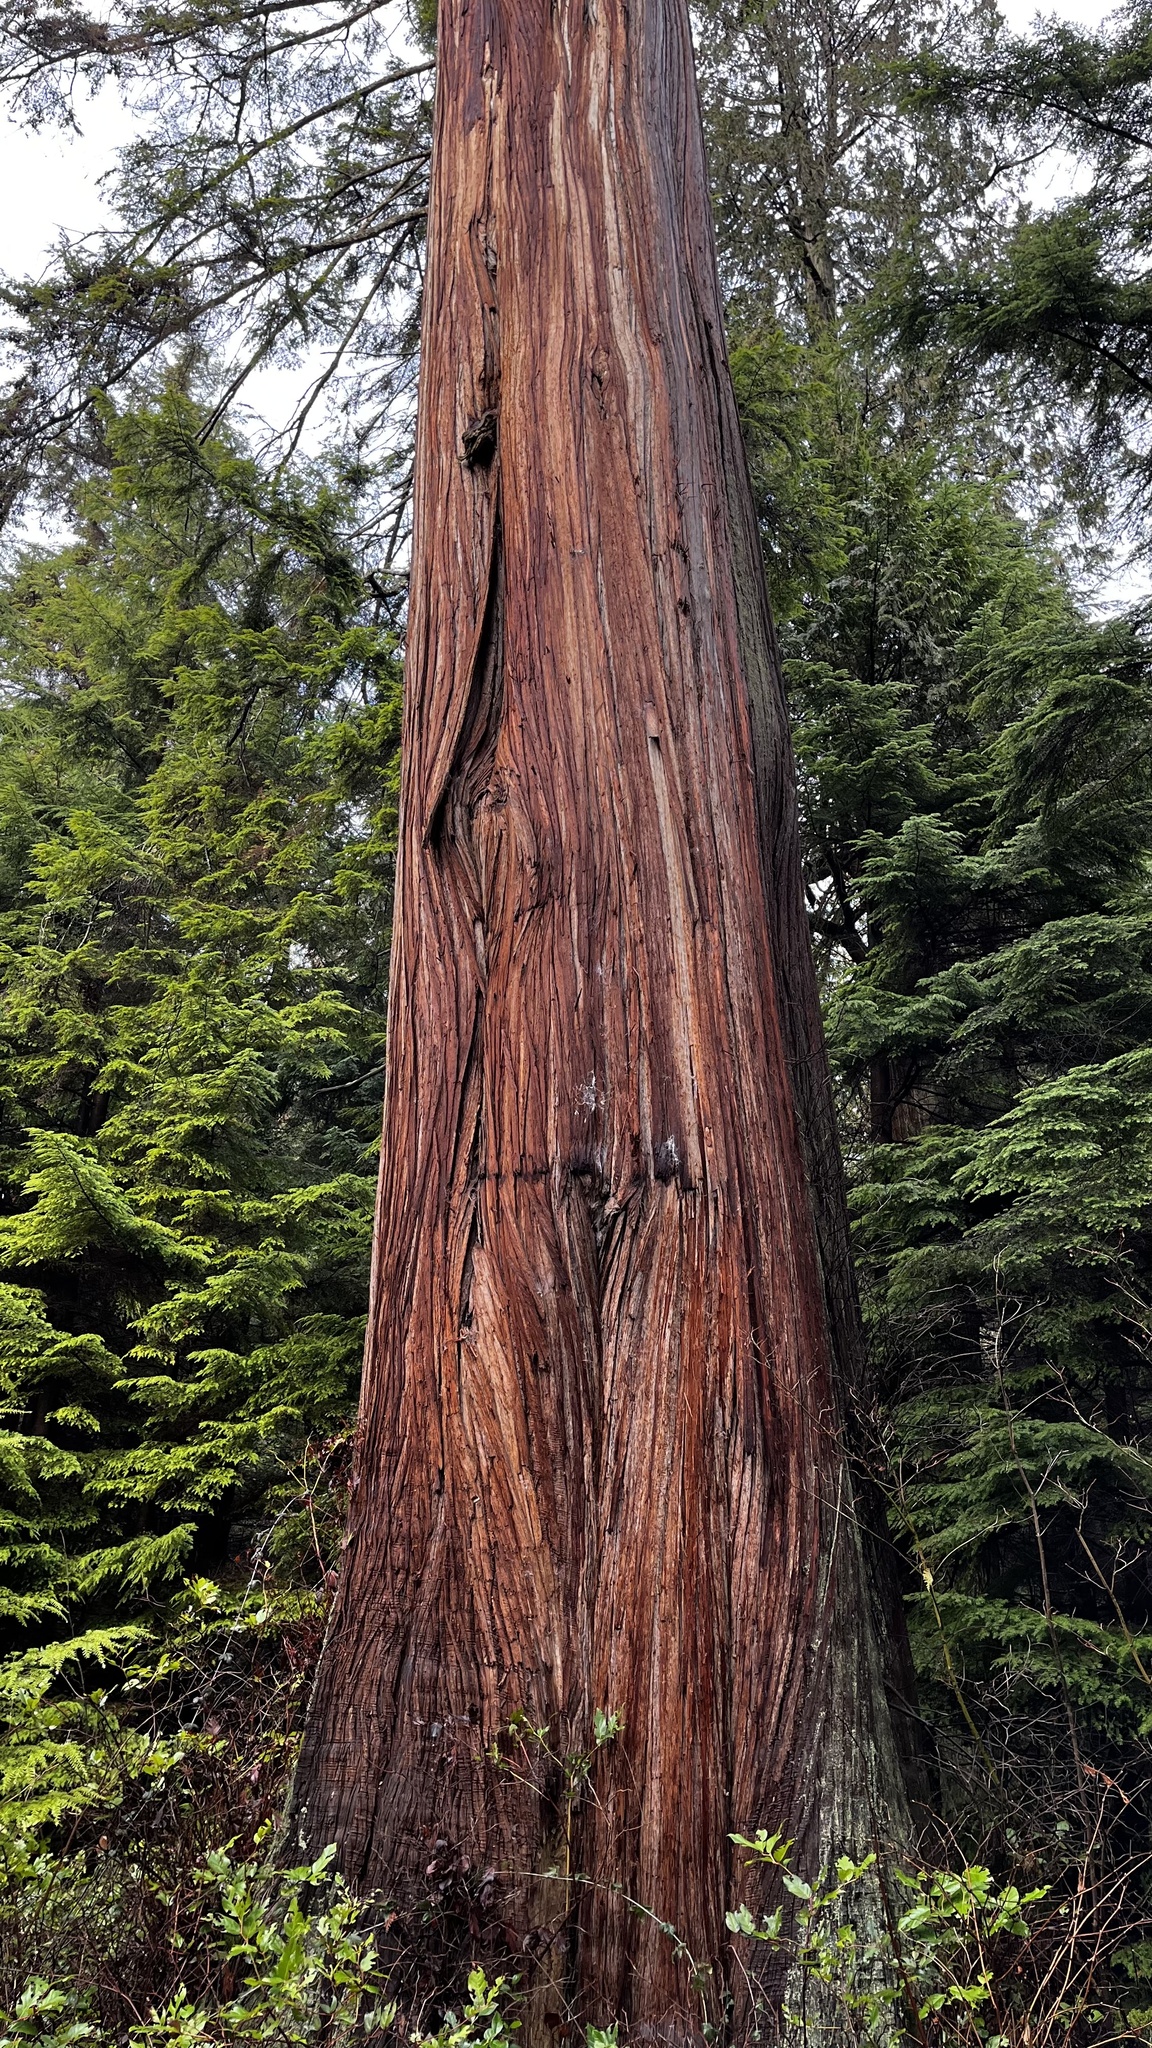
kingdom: Plantae
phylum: Tracheophyta
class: Pinopsida
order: Pinales
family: Cupressaceae
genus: Thuja
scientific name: Thuja plicata
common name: Western red-cedar
